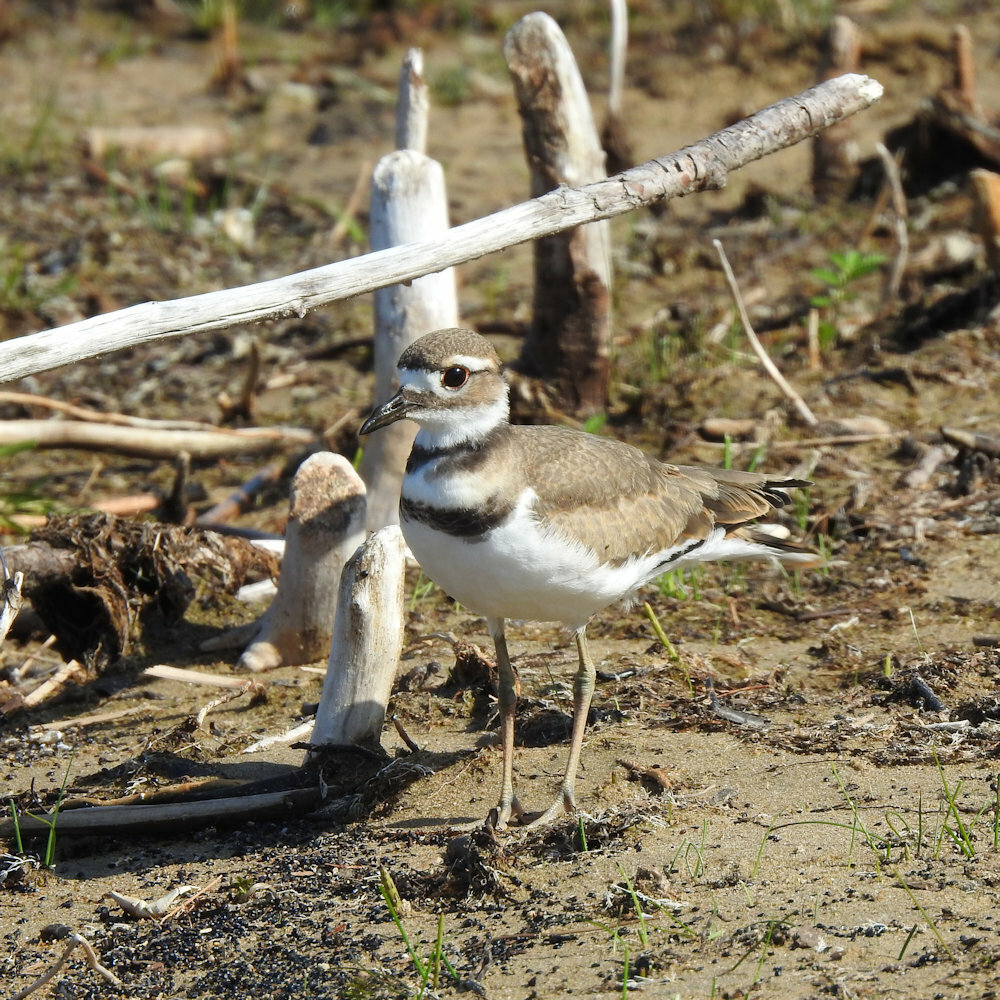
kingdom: Animalia
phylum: Chordata
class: Aves
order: Charadriiformes
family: Charadriidae
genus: Charadrius
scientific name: Charadrius vociferus
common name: Killdeer
